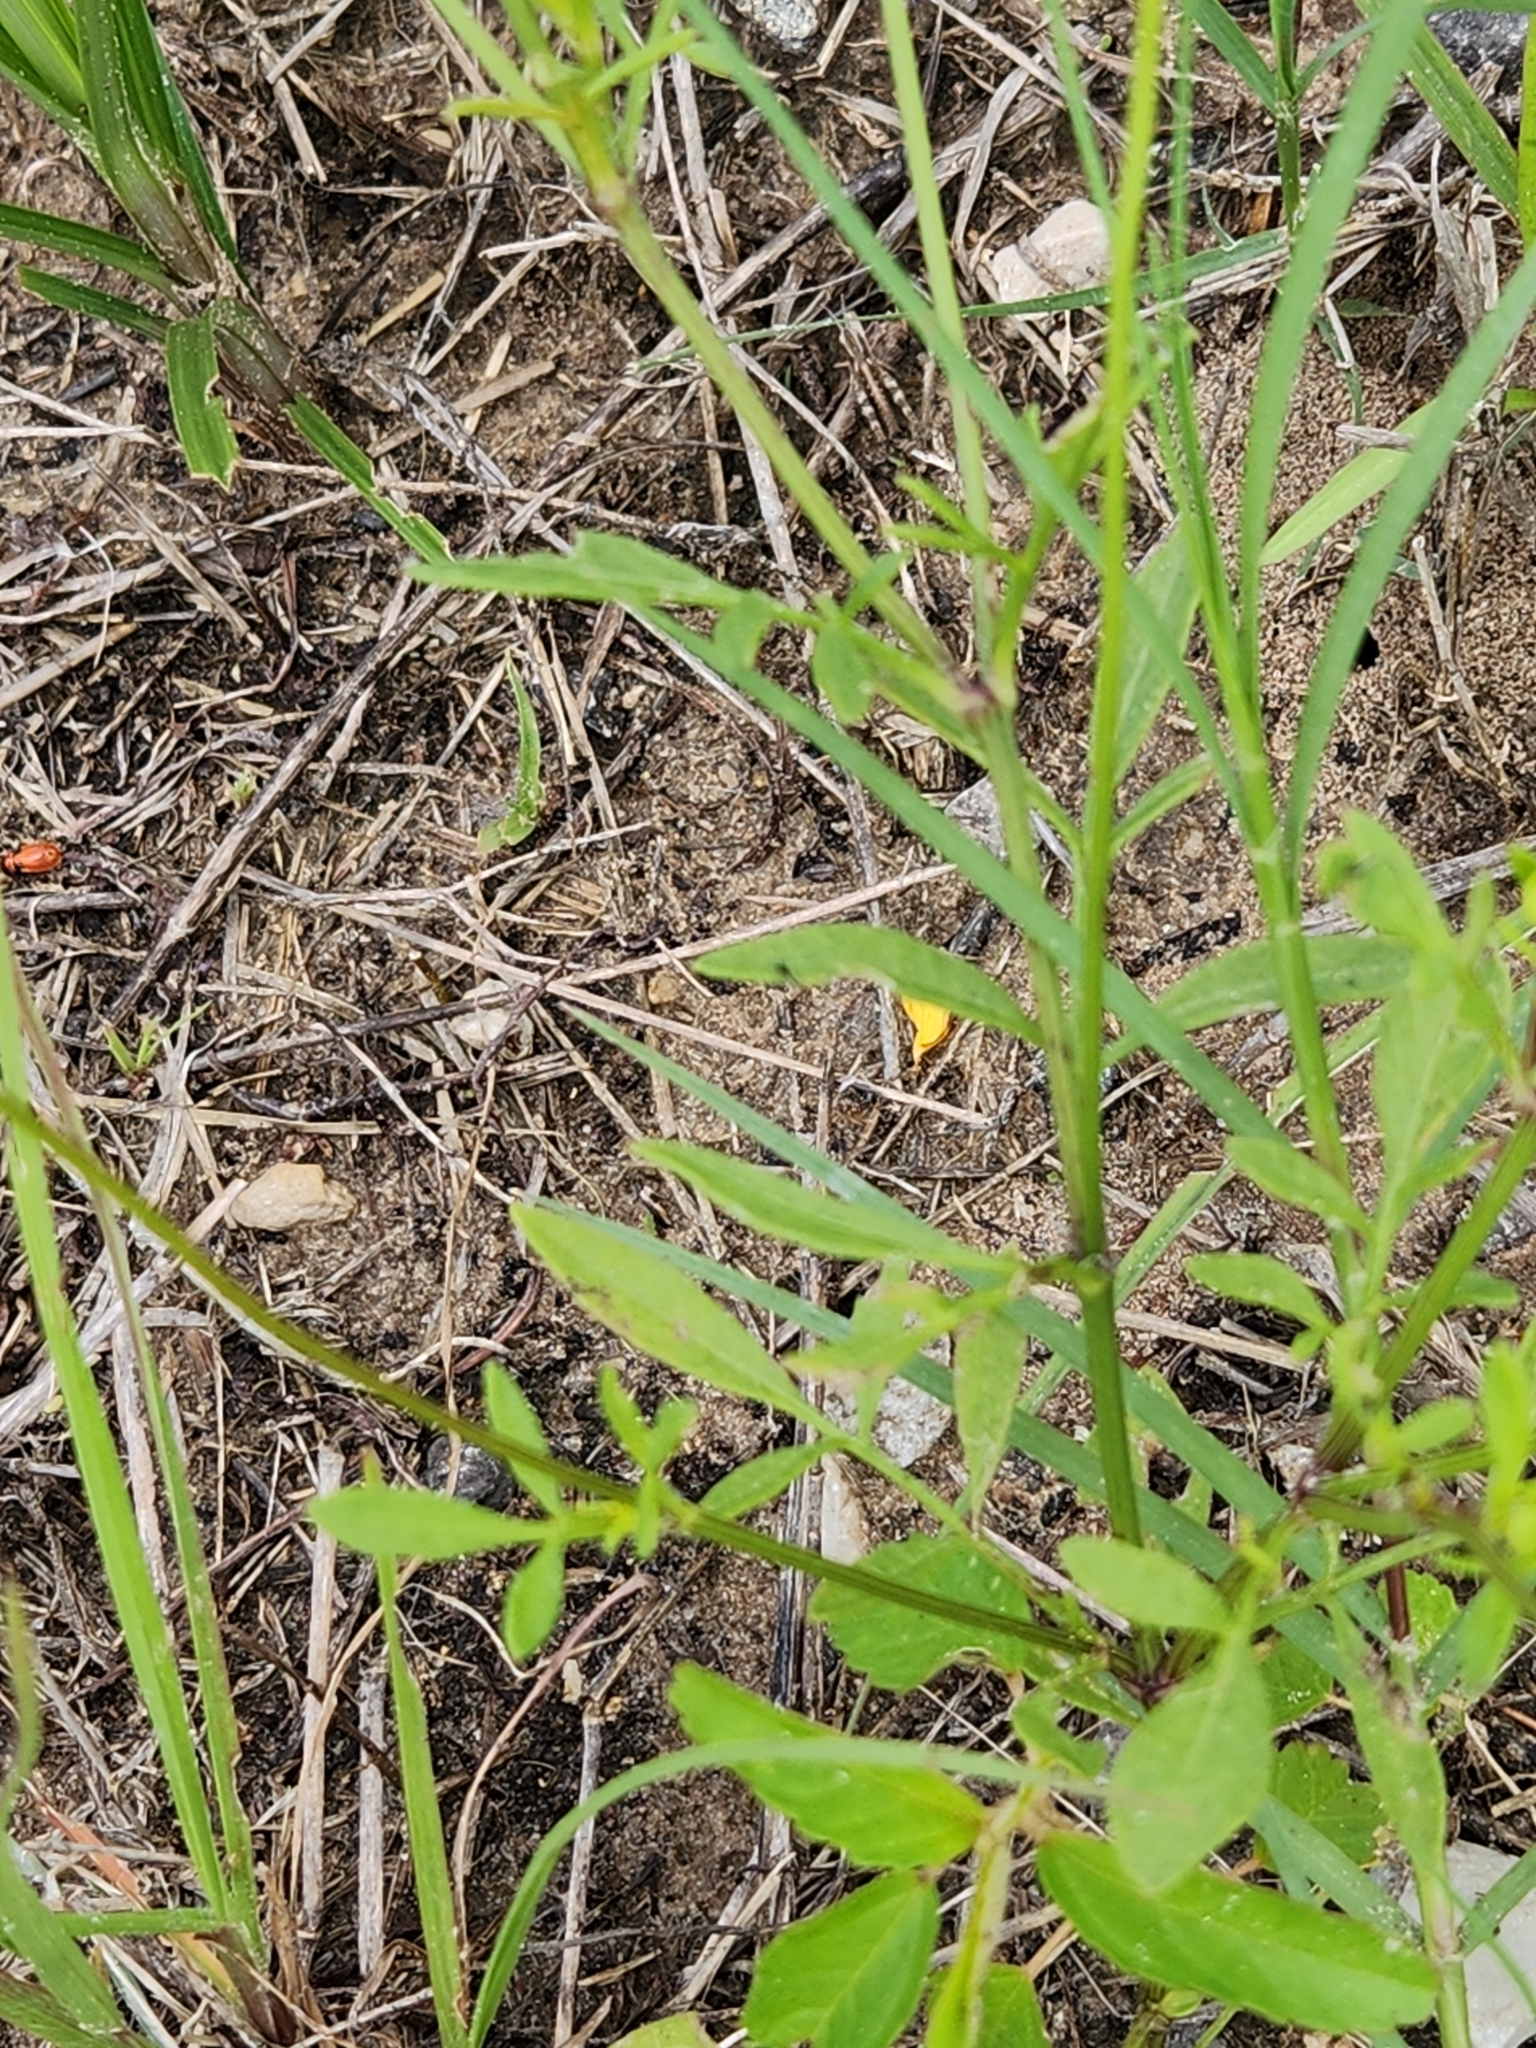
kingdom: Plantae
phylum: Tracheophyta
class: Magnoliopsida
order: Asterales
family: Asteraceae
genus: Coreopsis
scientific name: Coreopsis basalis
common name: Golden-mane coreopsis
